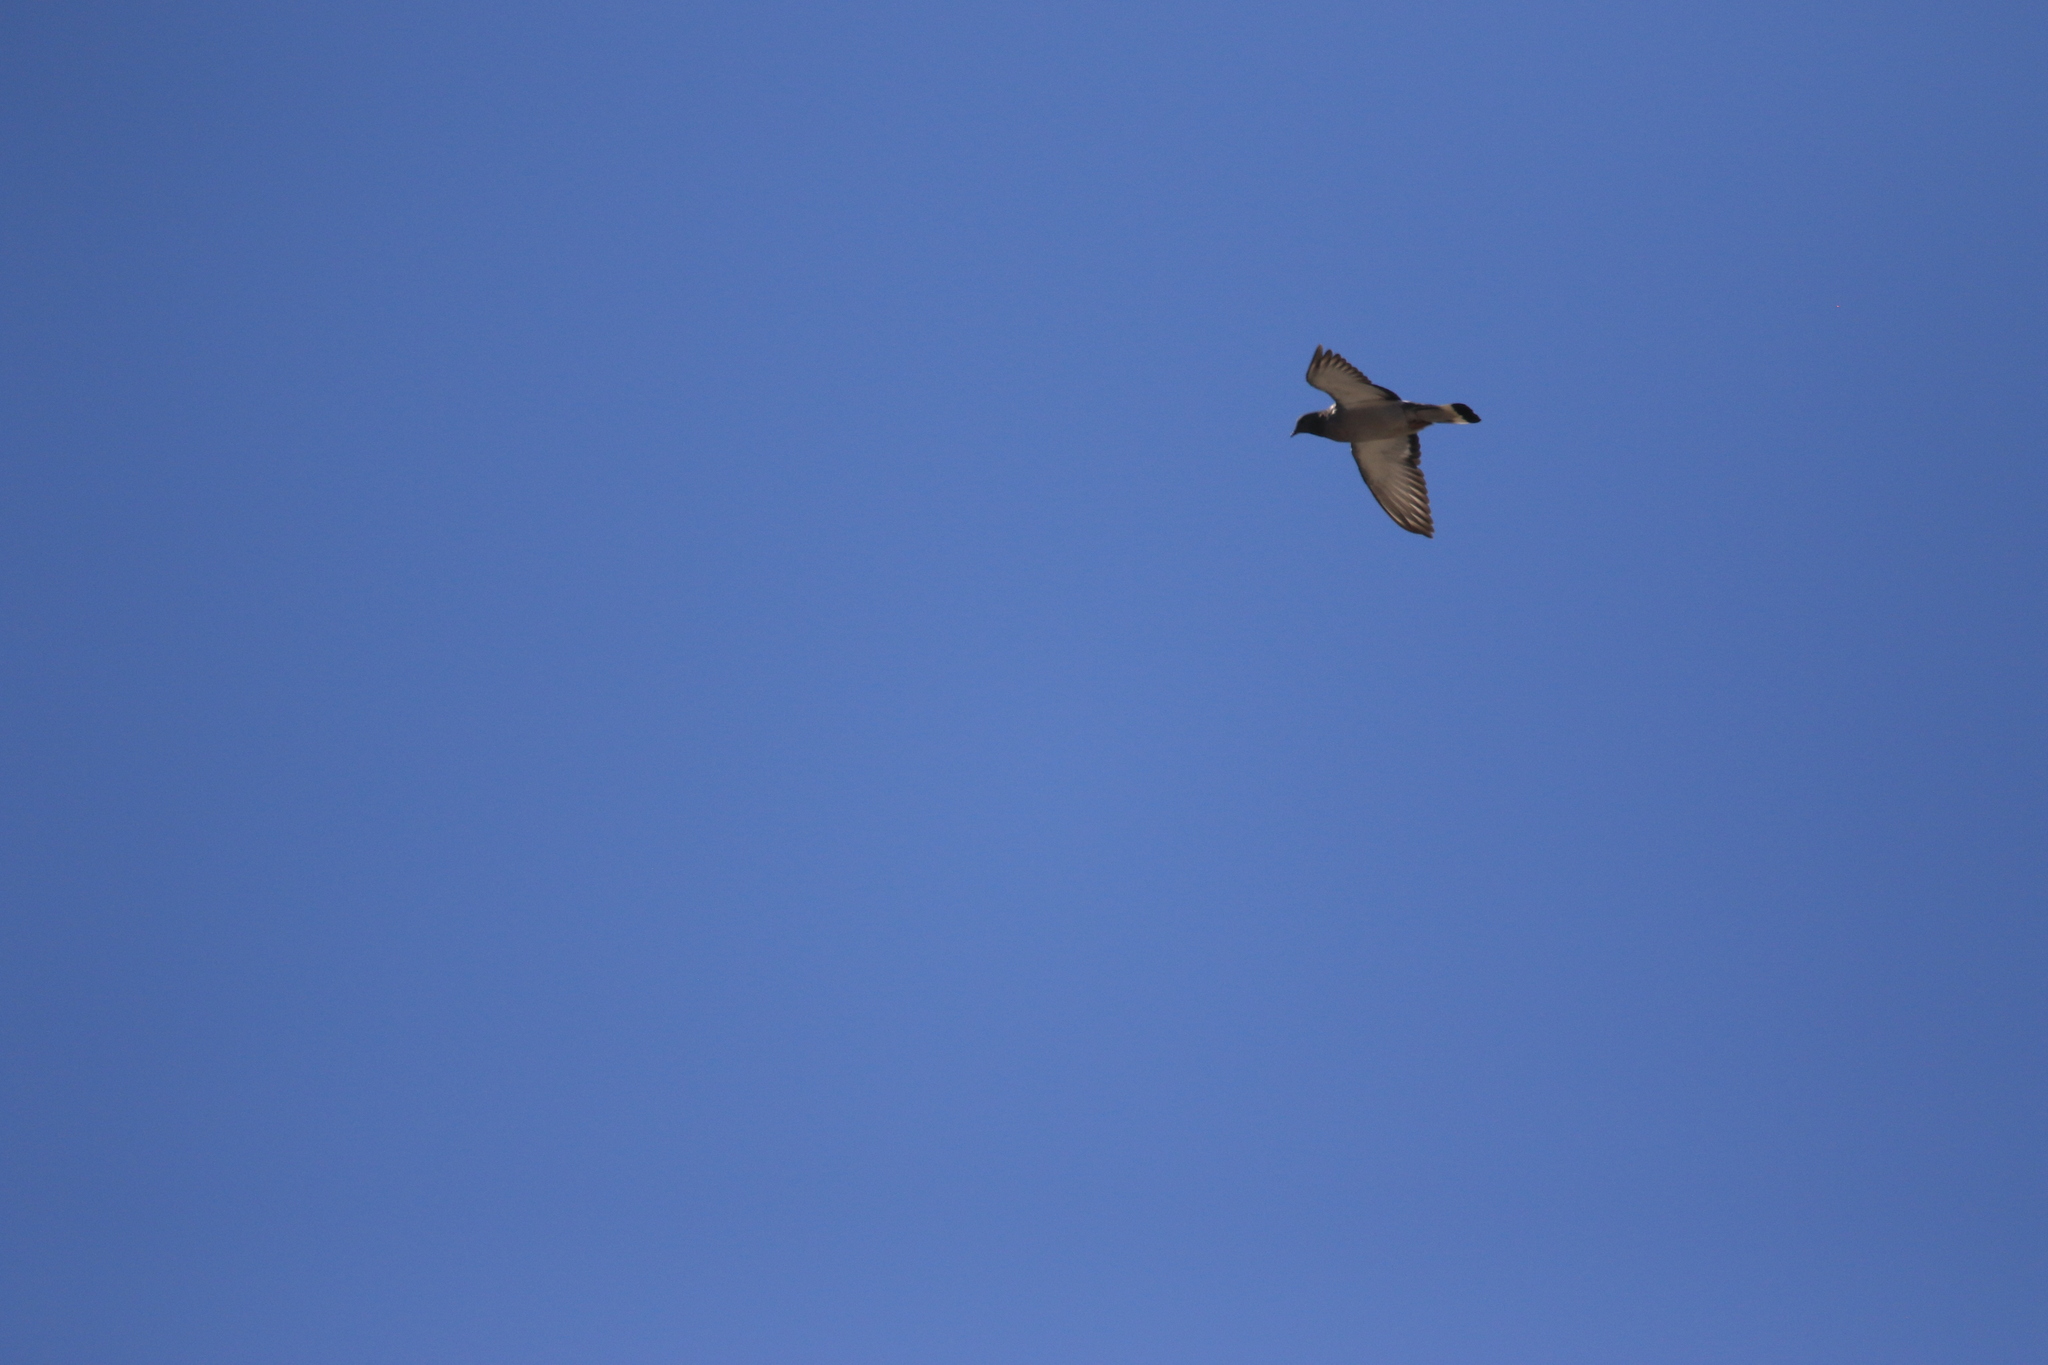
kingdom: Animalia
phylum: Chordata
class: Aves
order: Columbiformes
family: Columbidae
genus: Columba
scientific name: Columba rupestris
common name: Hill pigeon
